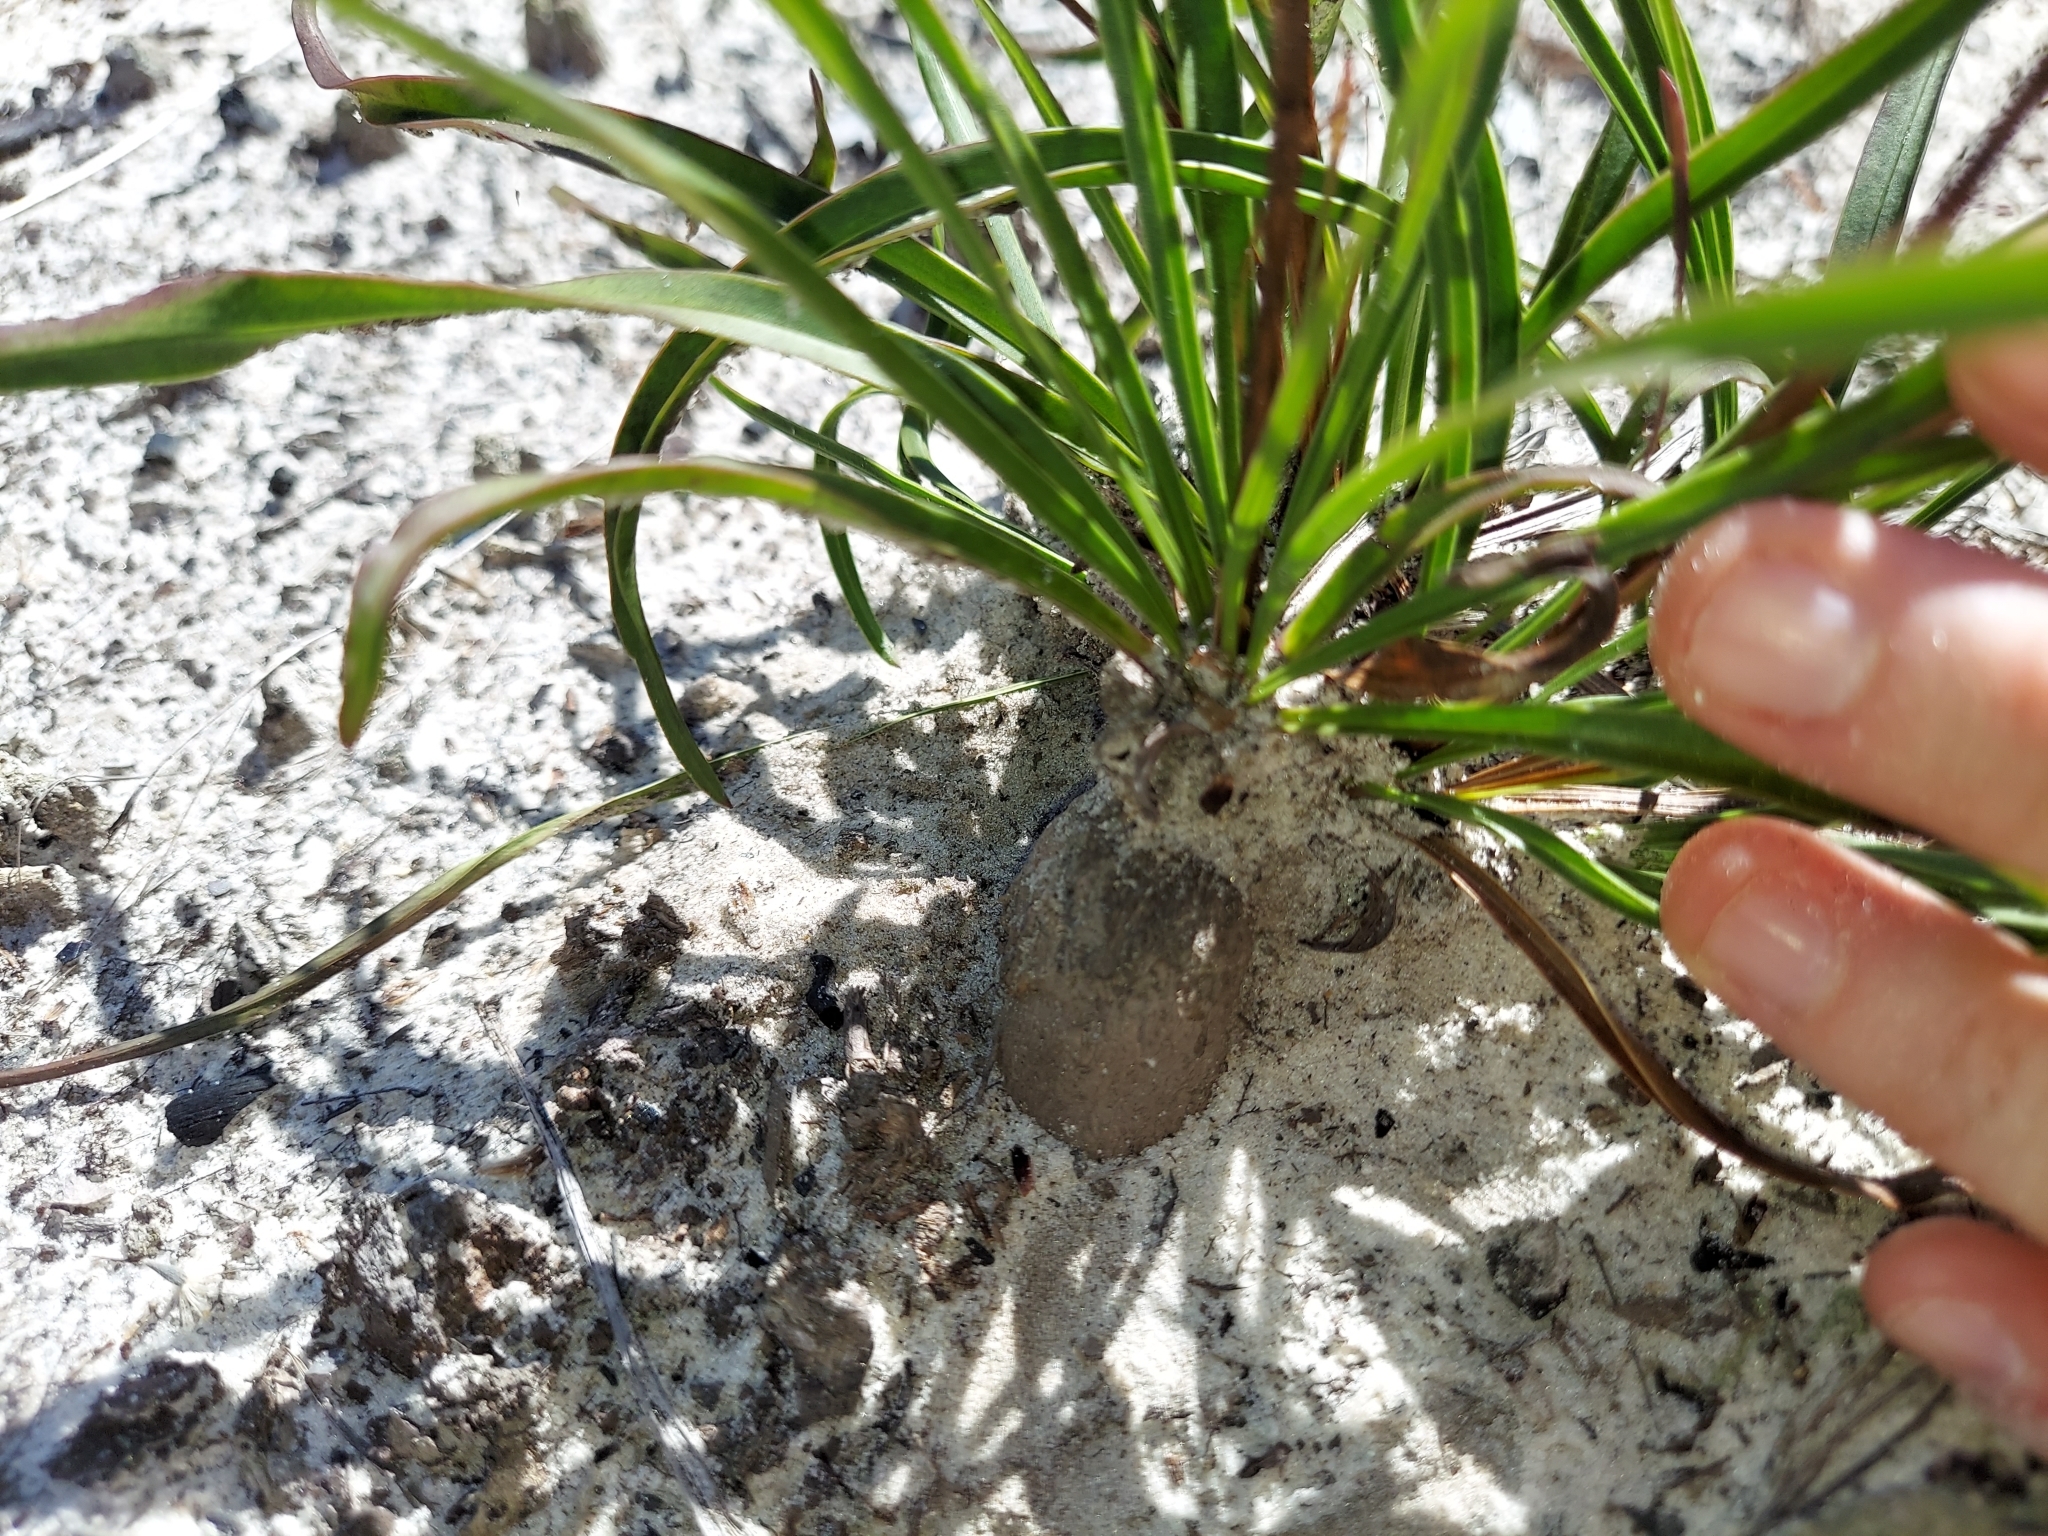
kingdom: Plantae
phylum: Tracheophyta
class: Magnoliopsida
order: Asterales
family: Asteraceae
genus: Liatris
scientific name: Liatris laevigata
